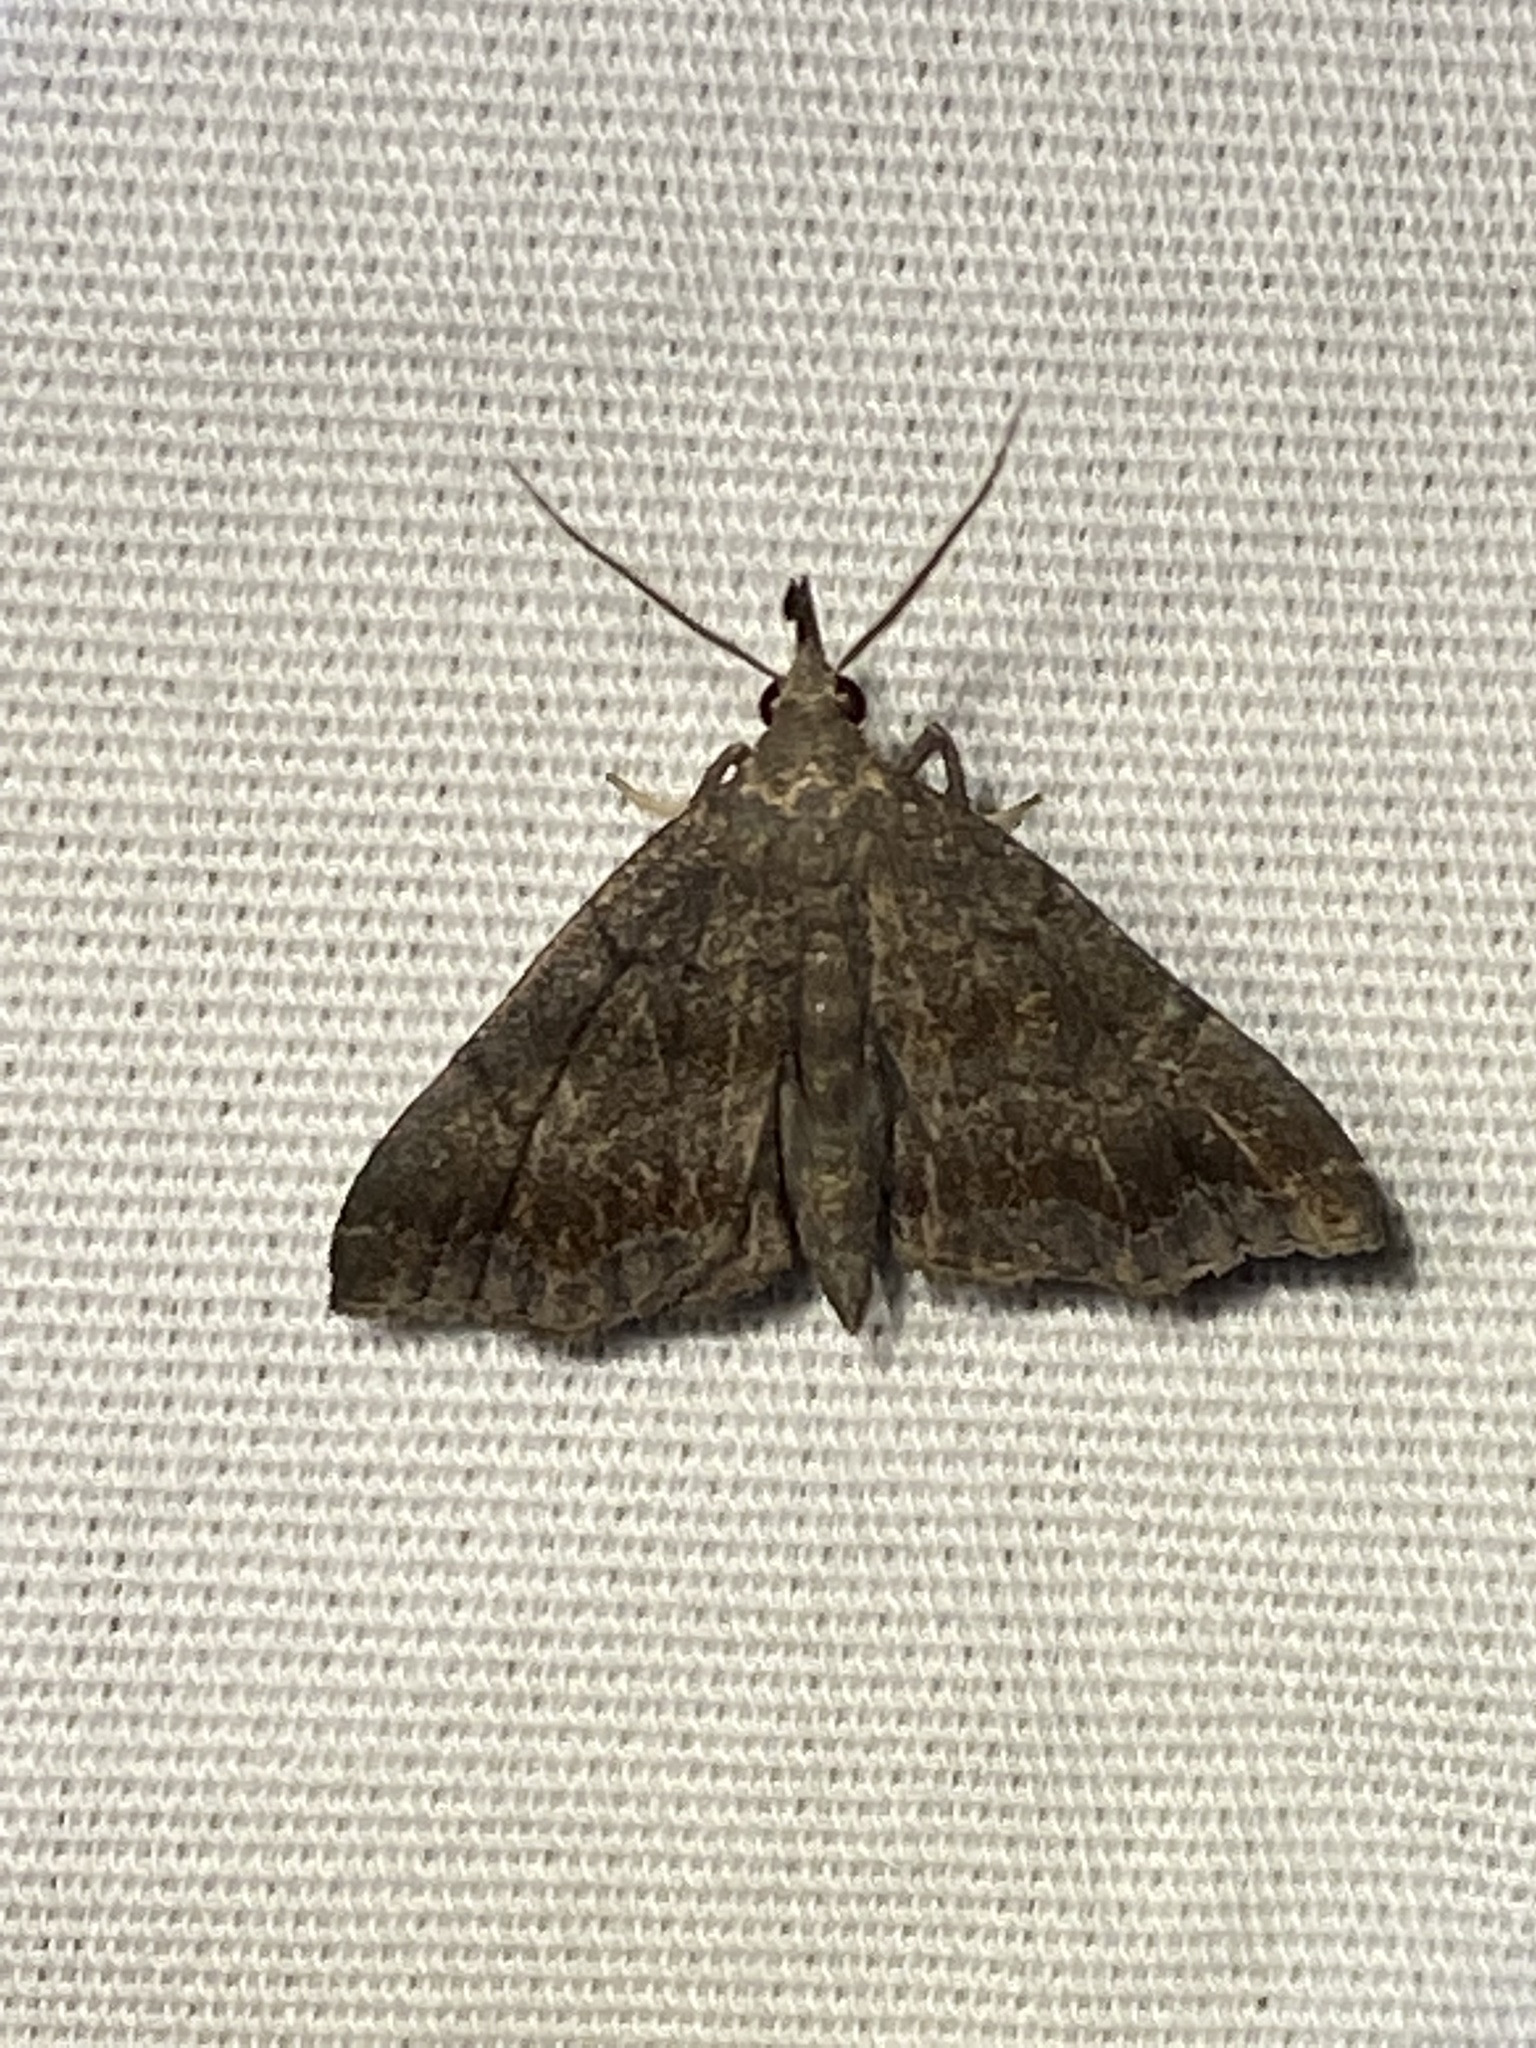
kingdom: Animalia
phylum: Arthropoda
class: Insecta
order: Lepidoptera
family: Erebidae
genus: Phalaenostola
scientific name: Phalaenostola larentioides
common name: Black-banded owlet
